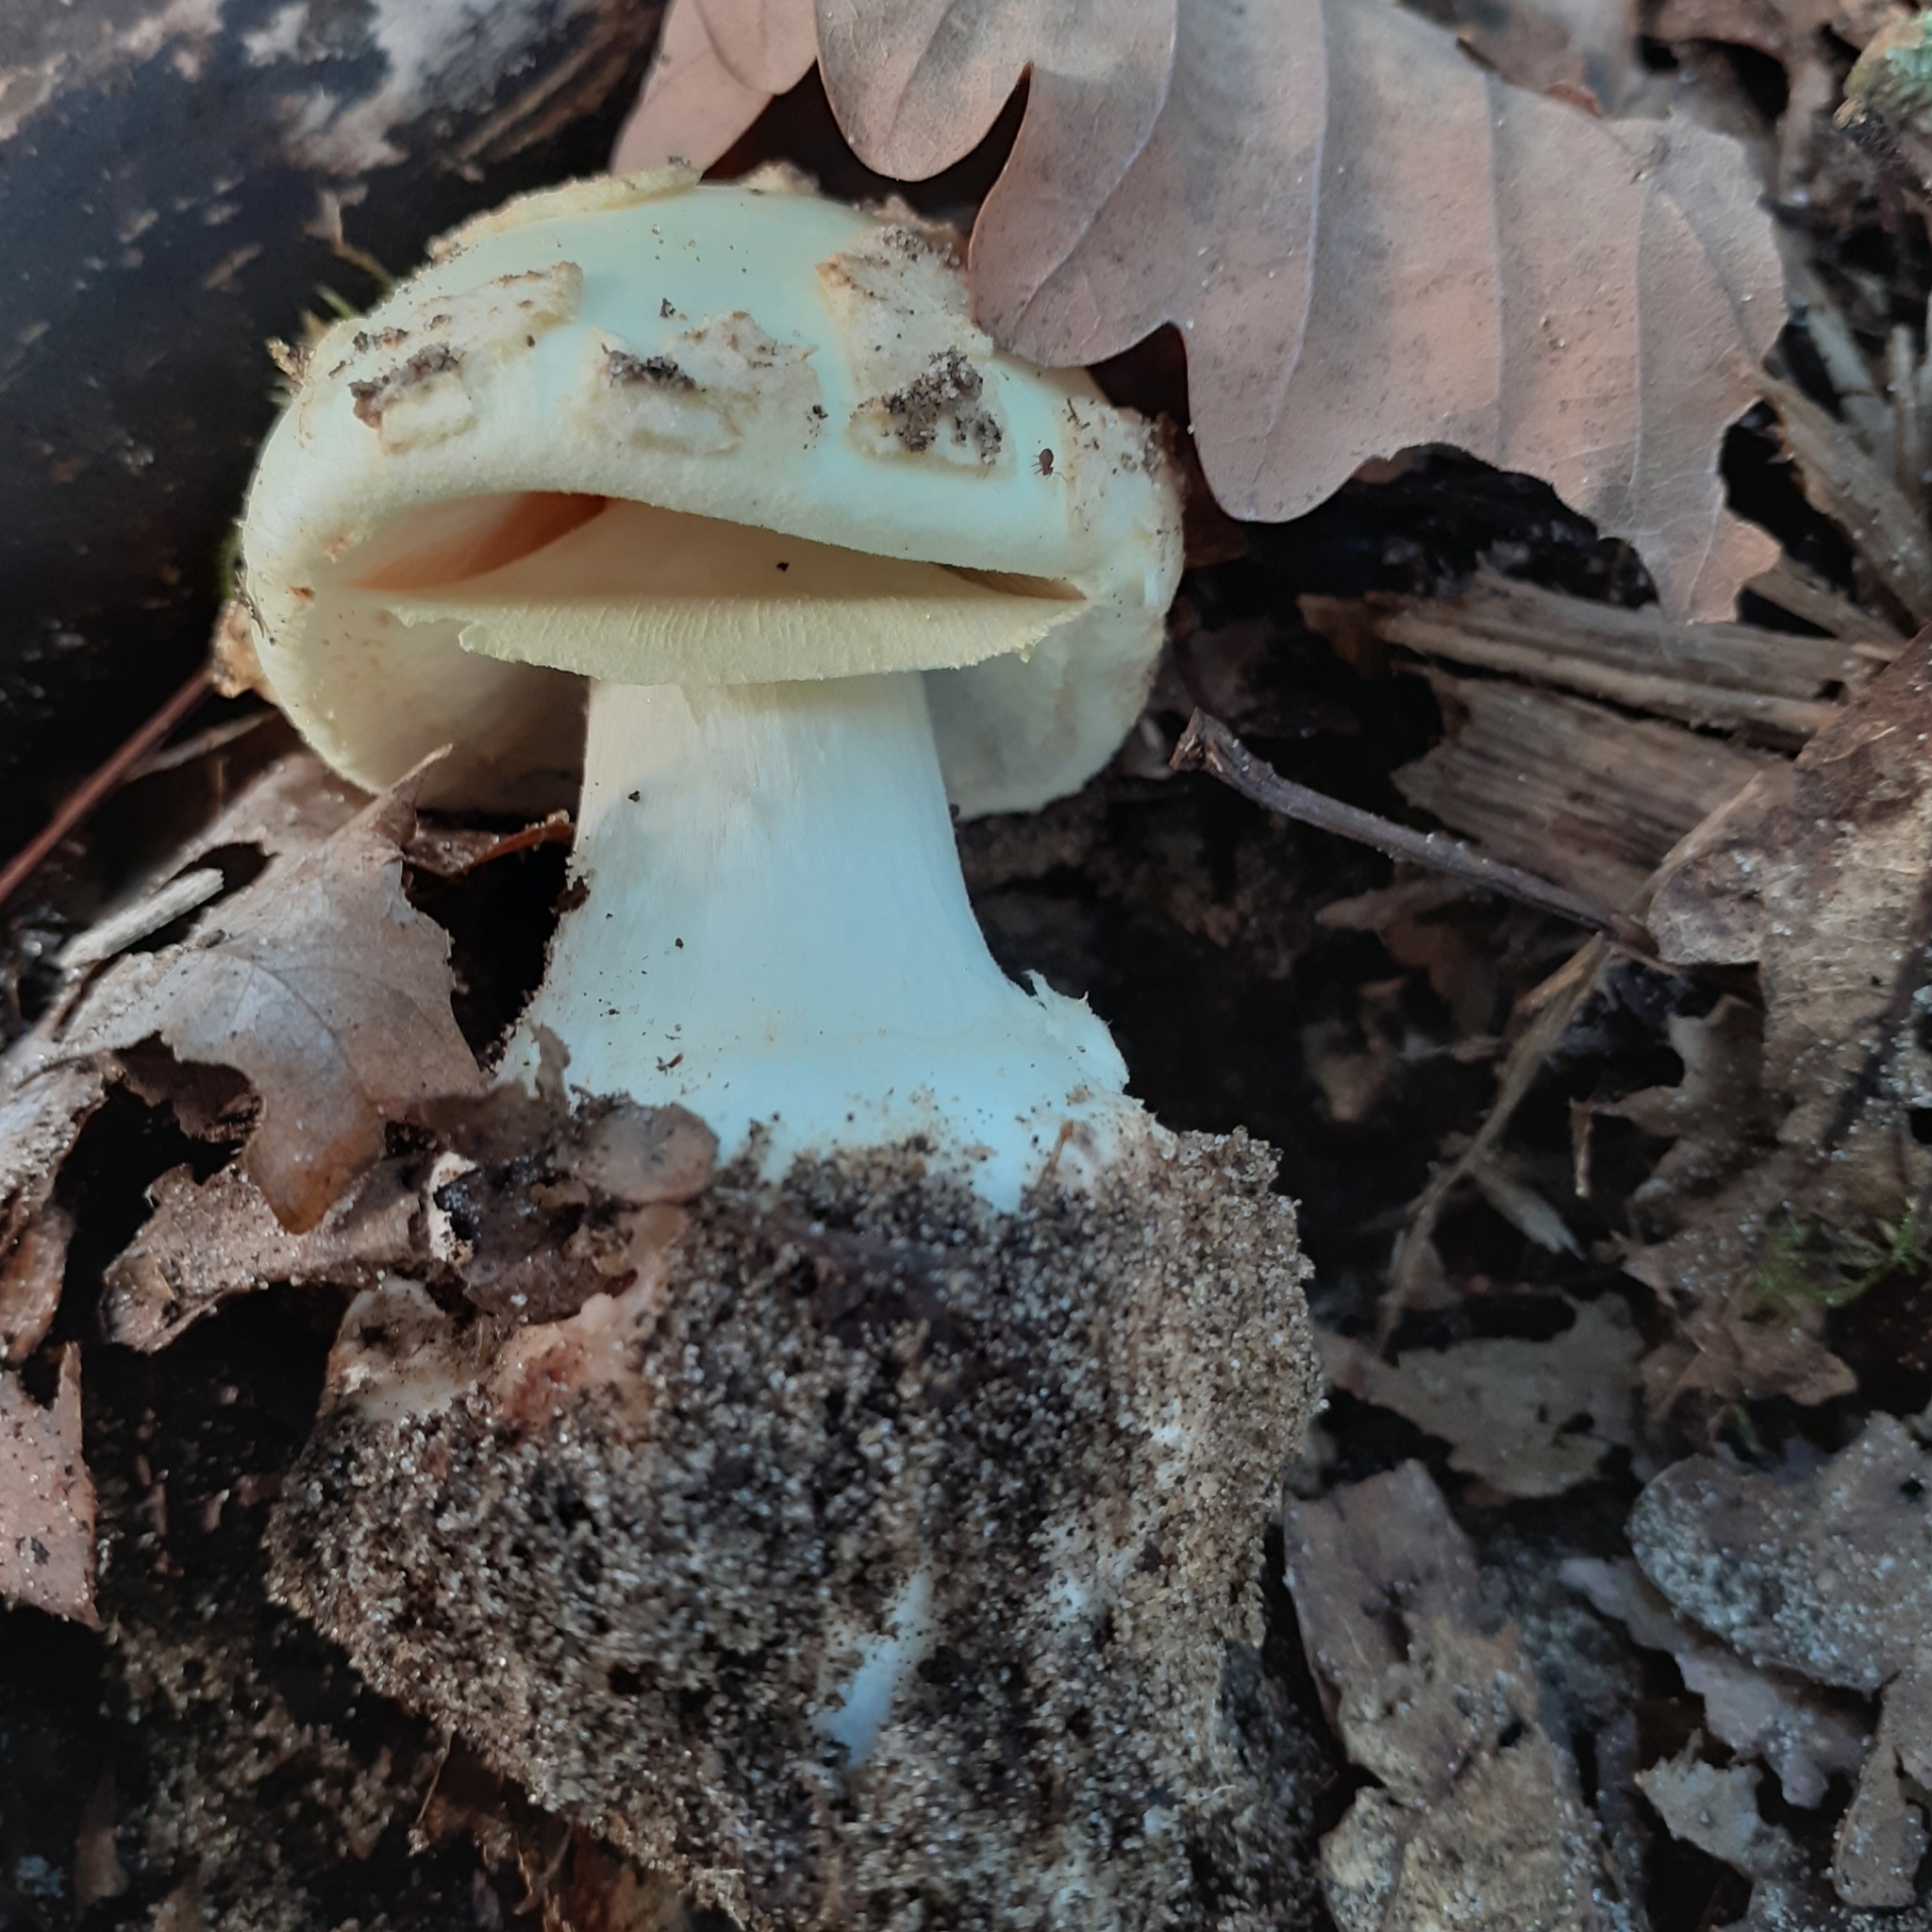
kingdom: Fungi
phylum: Basidiomycota
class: Agaricomycetes
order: Agaricales
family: Amanitaceae
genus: Amanita
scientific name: Amanita citrina
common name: False death-cap
